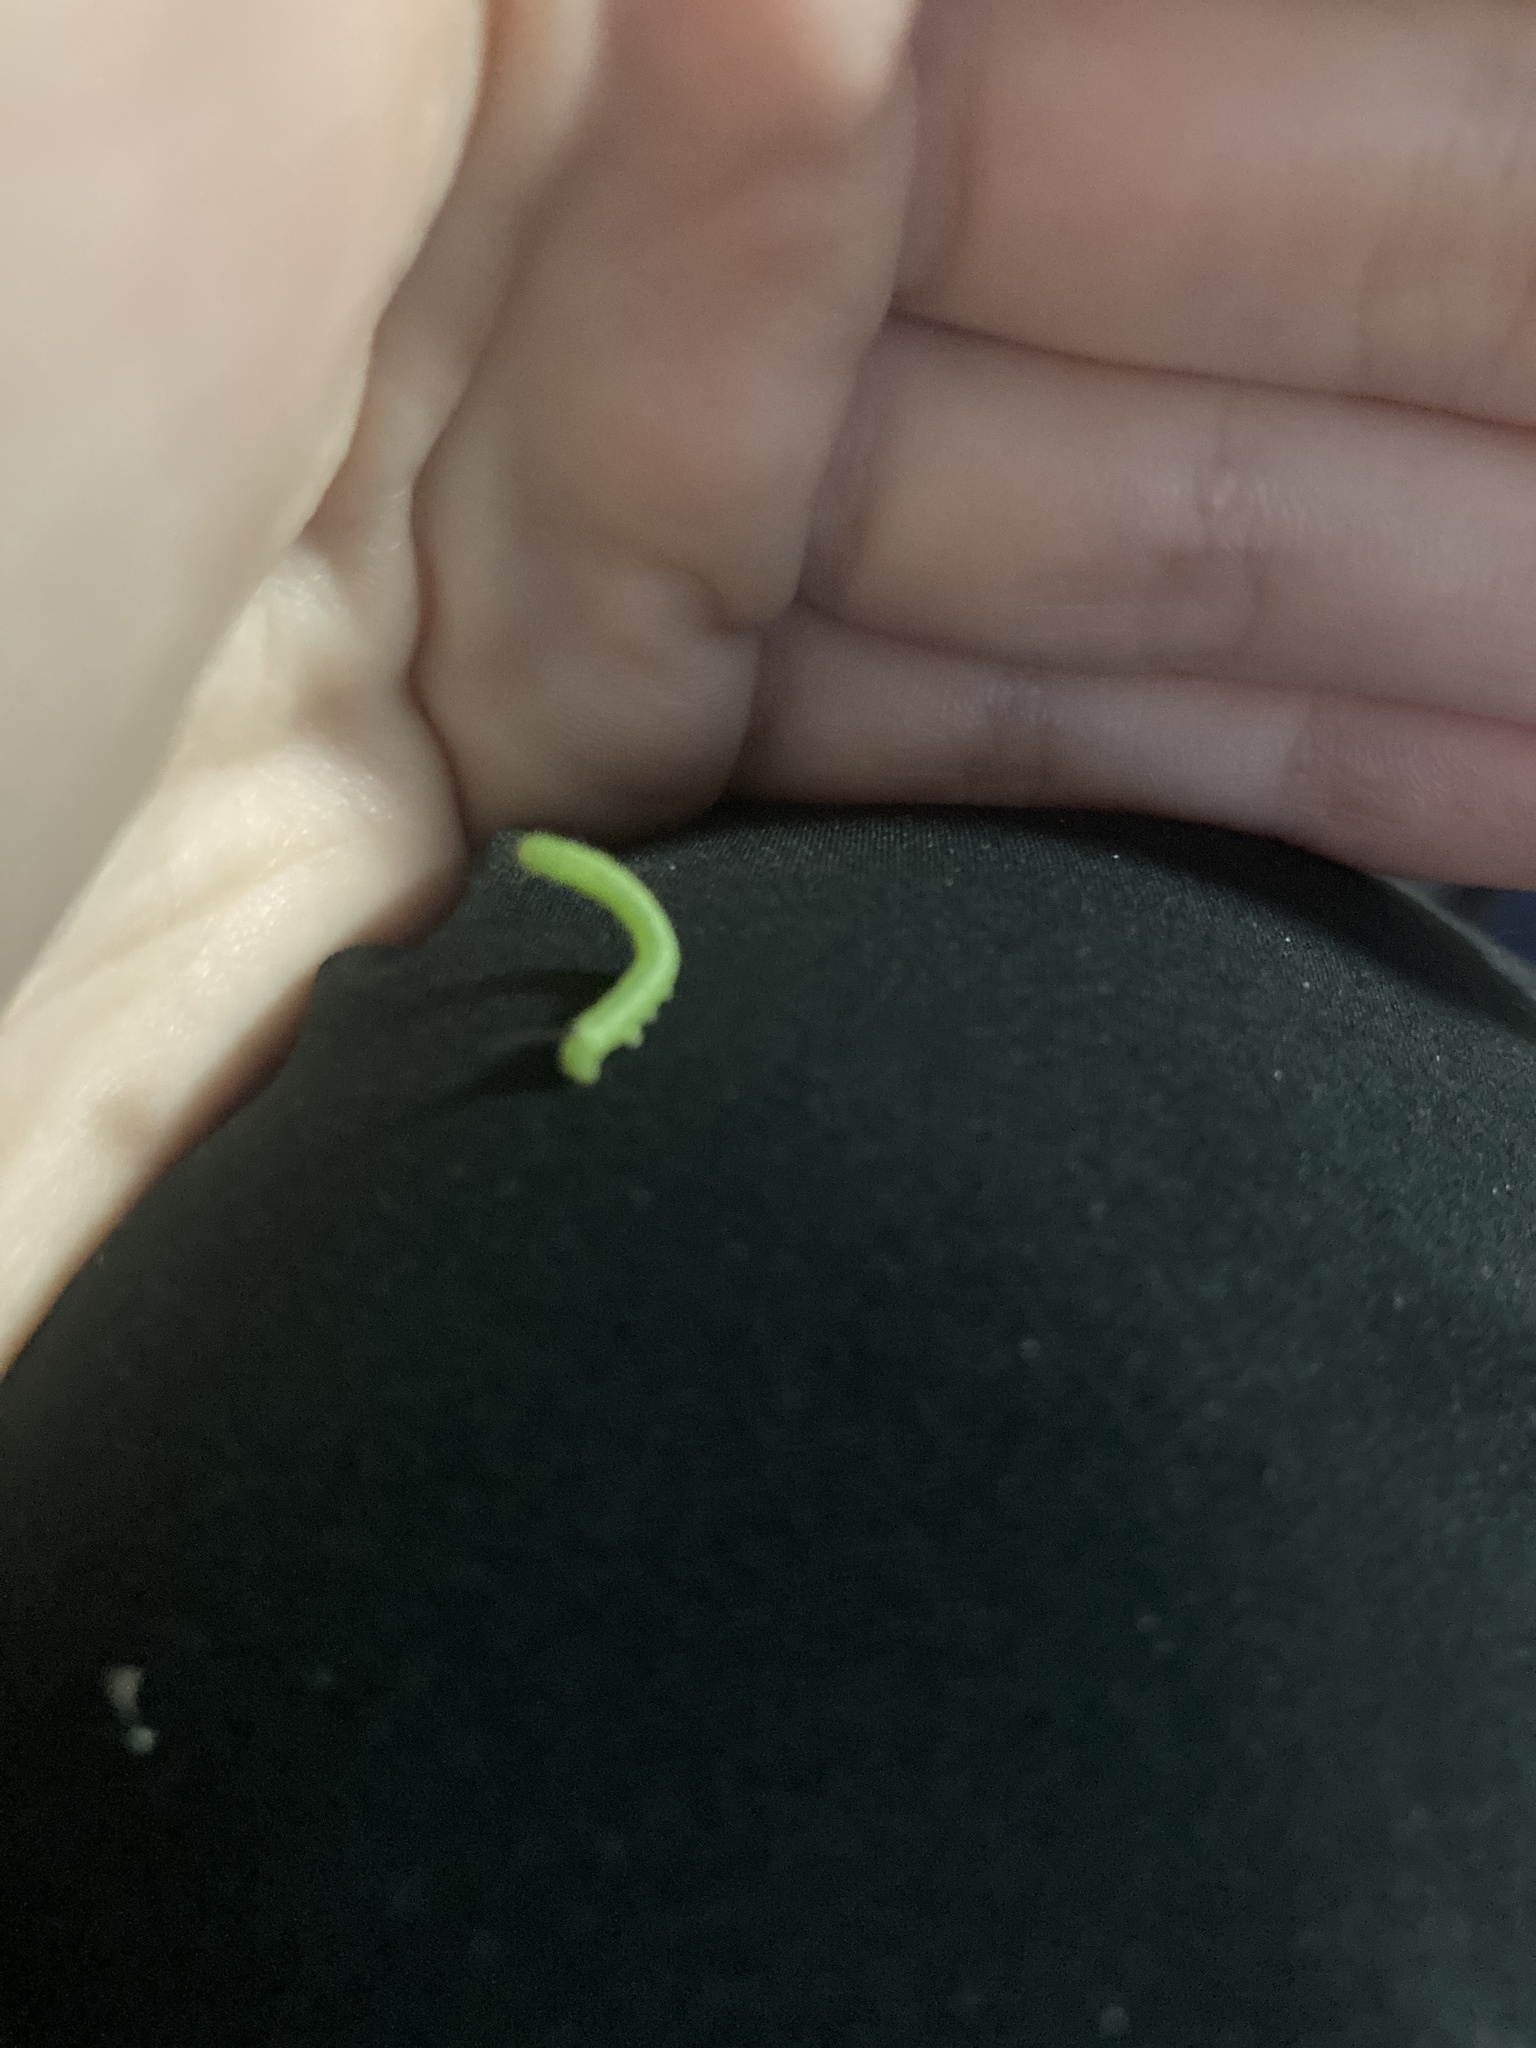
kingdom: Animalia
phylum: Arthropoda
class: Insecta
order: Lepidoptera
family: Sphingidae
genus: Manduca
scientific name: Manduca sexta
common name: Carolina sphinx
